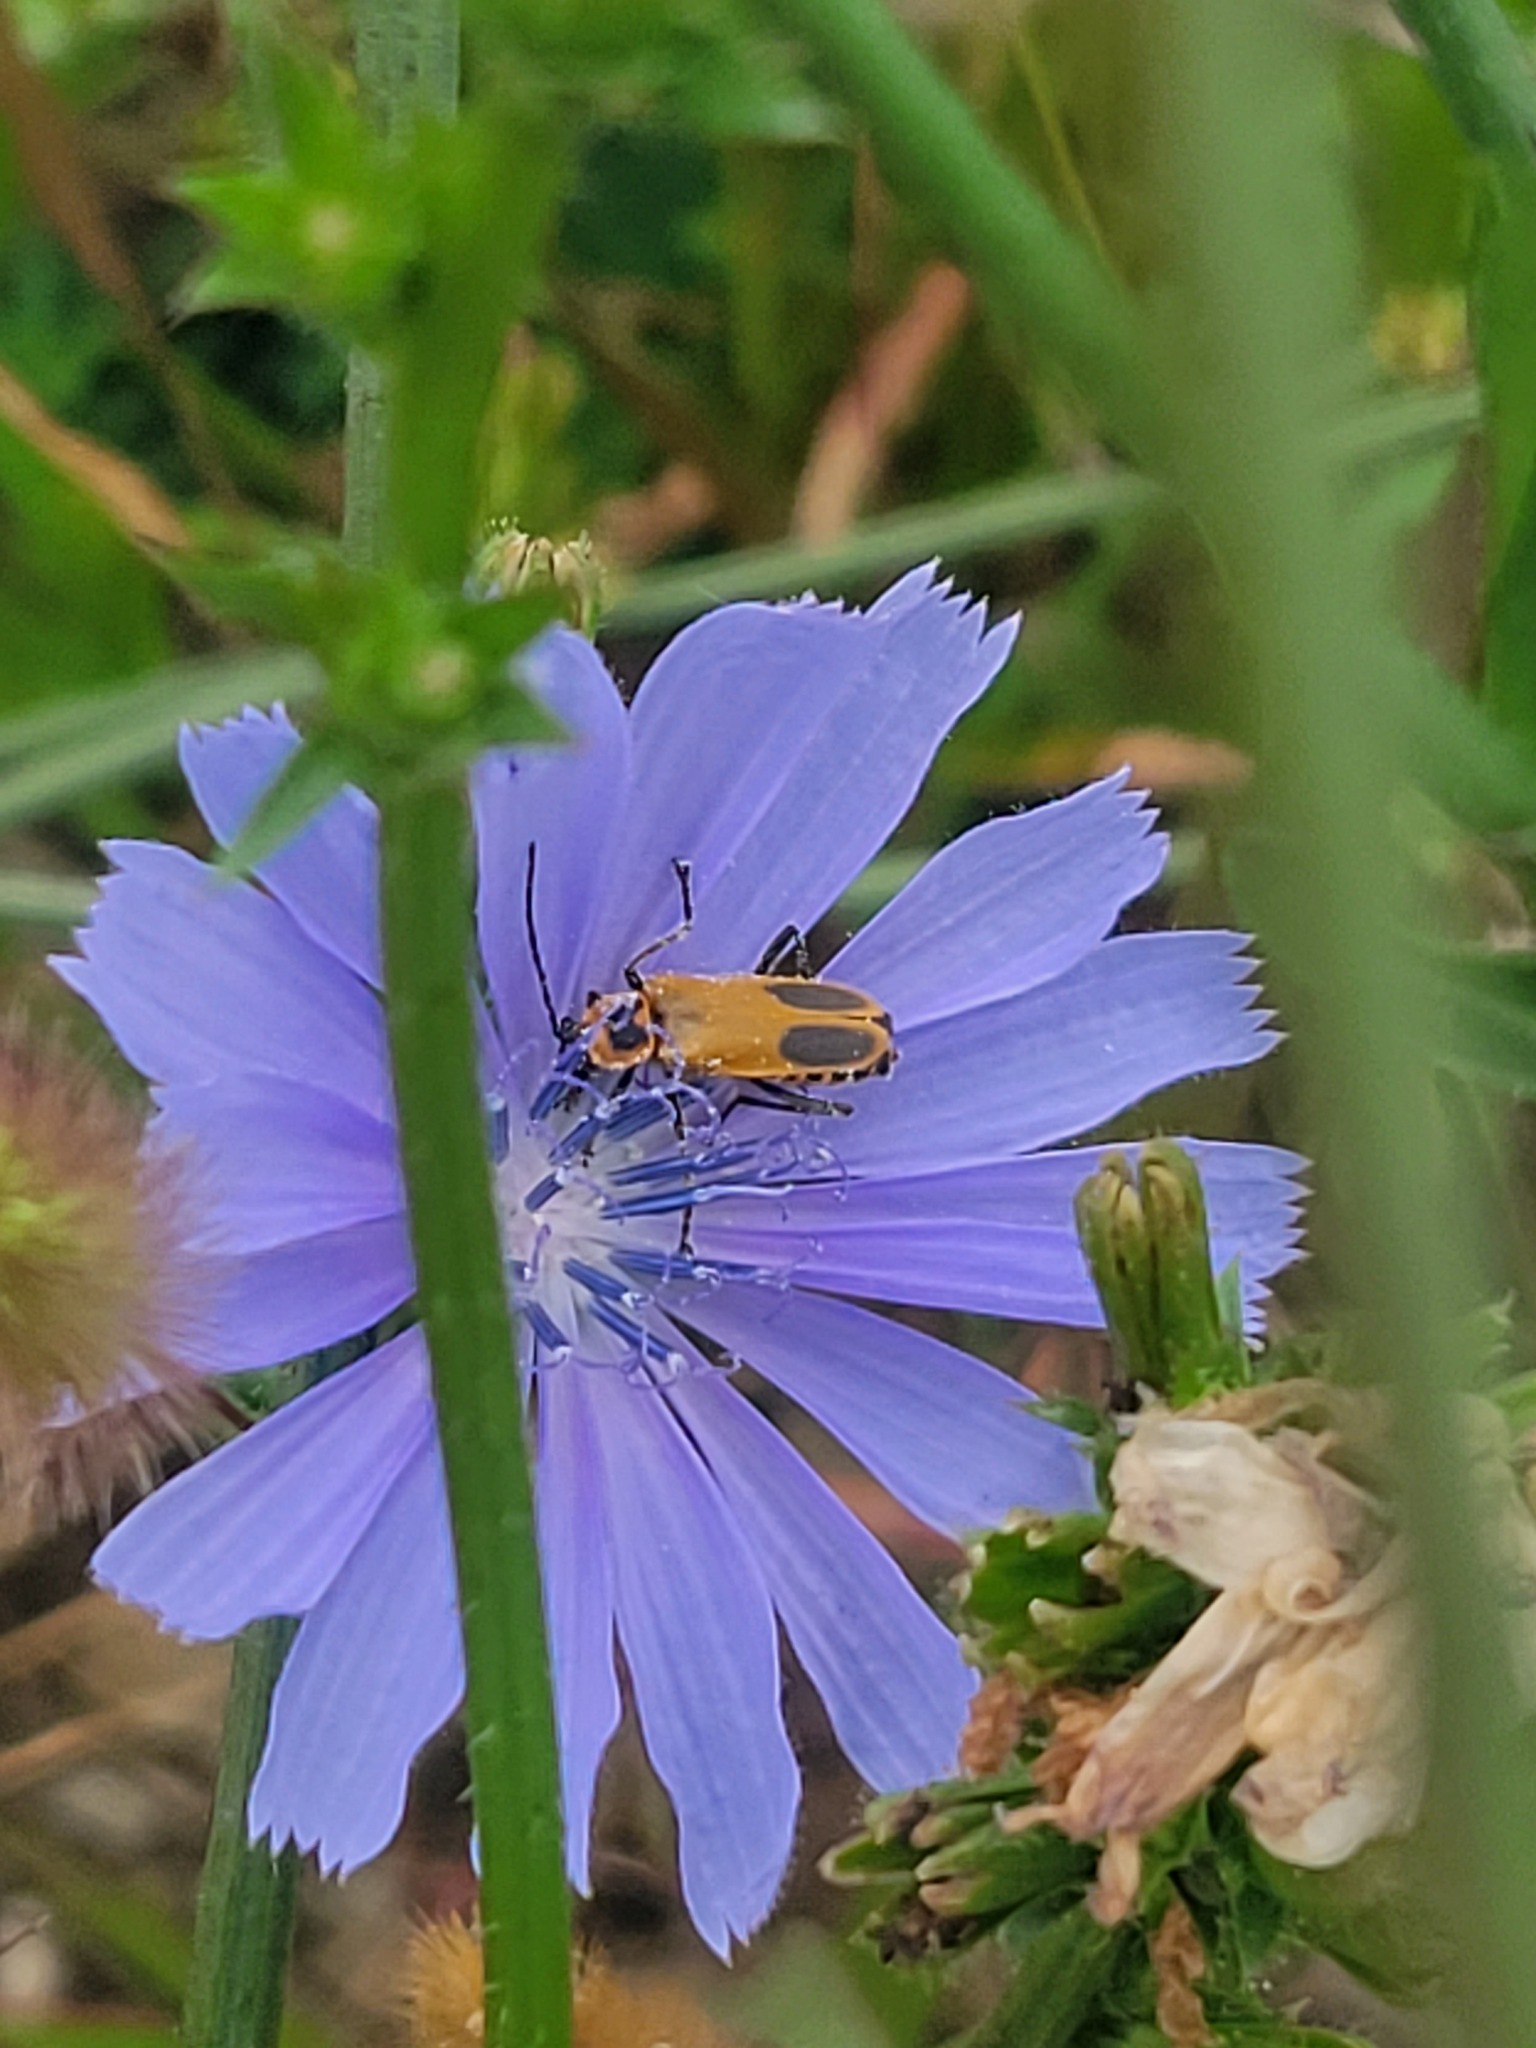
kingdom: Animalia
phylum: Arthropoda
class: Insecta
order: Coleoptera
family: Cantharidae
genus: Chauliognathus
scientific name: Chauliognathus pensylvanicus
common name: Goldenrod soldier beetle
